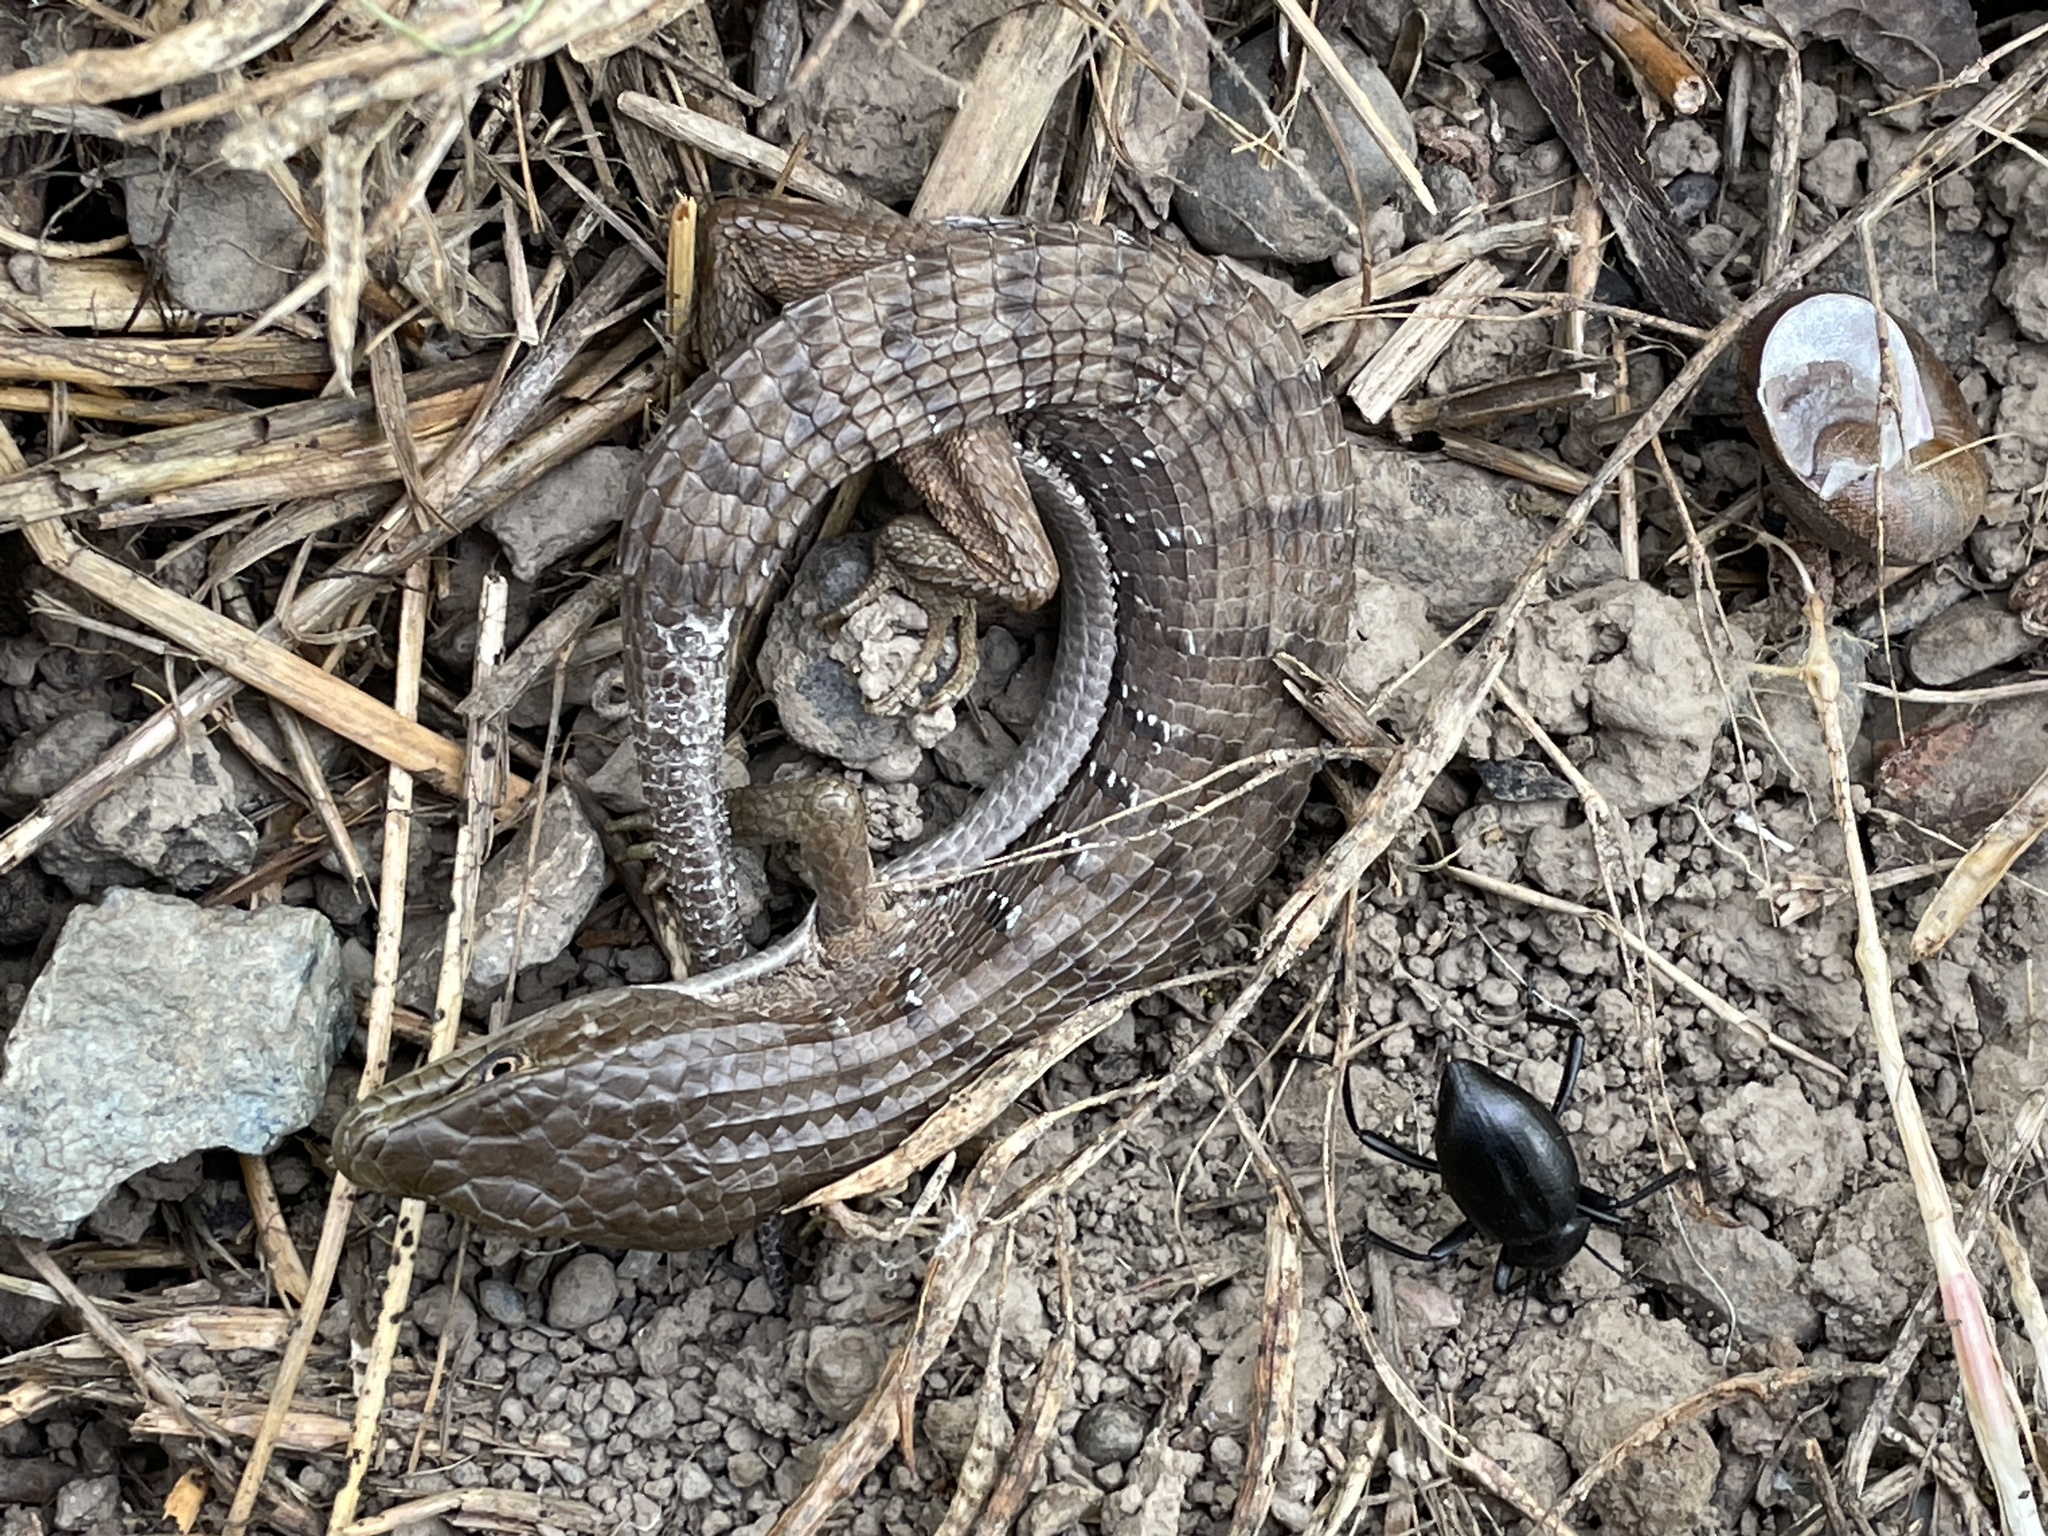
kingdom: Animalia
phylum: Chordata
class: Squamata
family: Anguidae
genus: Elgaria
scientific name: Elgaria multicarinata
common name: Southern alligator lizard
